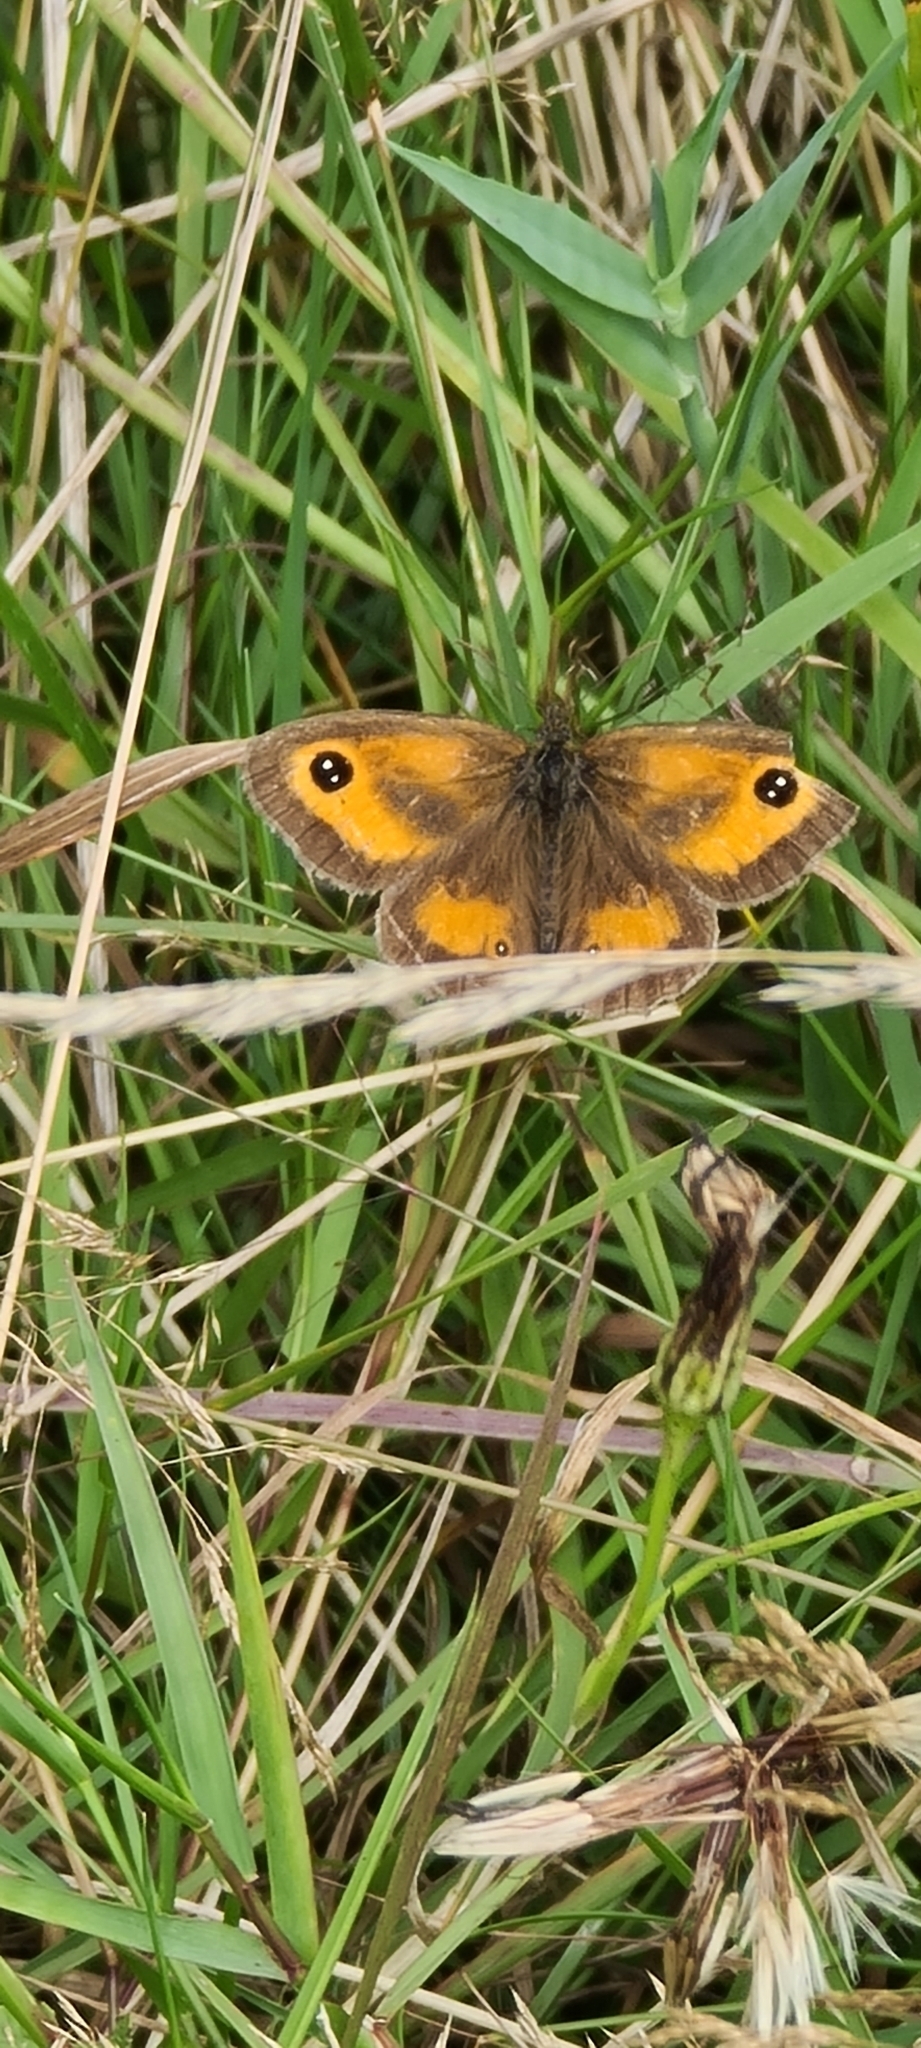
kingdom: Animalia
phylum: Arthropoda
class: Insecta
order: Lepidoptera
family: Nymphalidae
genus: Pyronia
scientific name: Pyronia tithonus
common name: Gatekeeper
